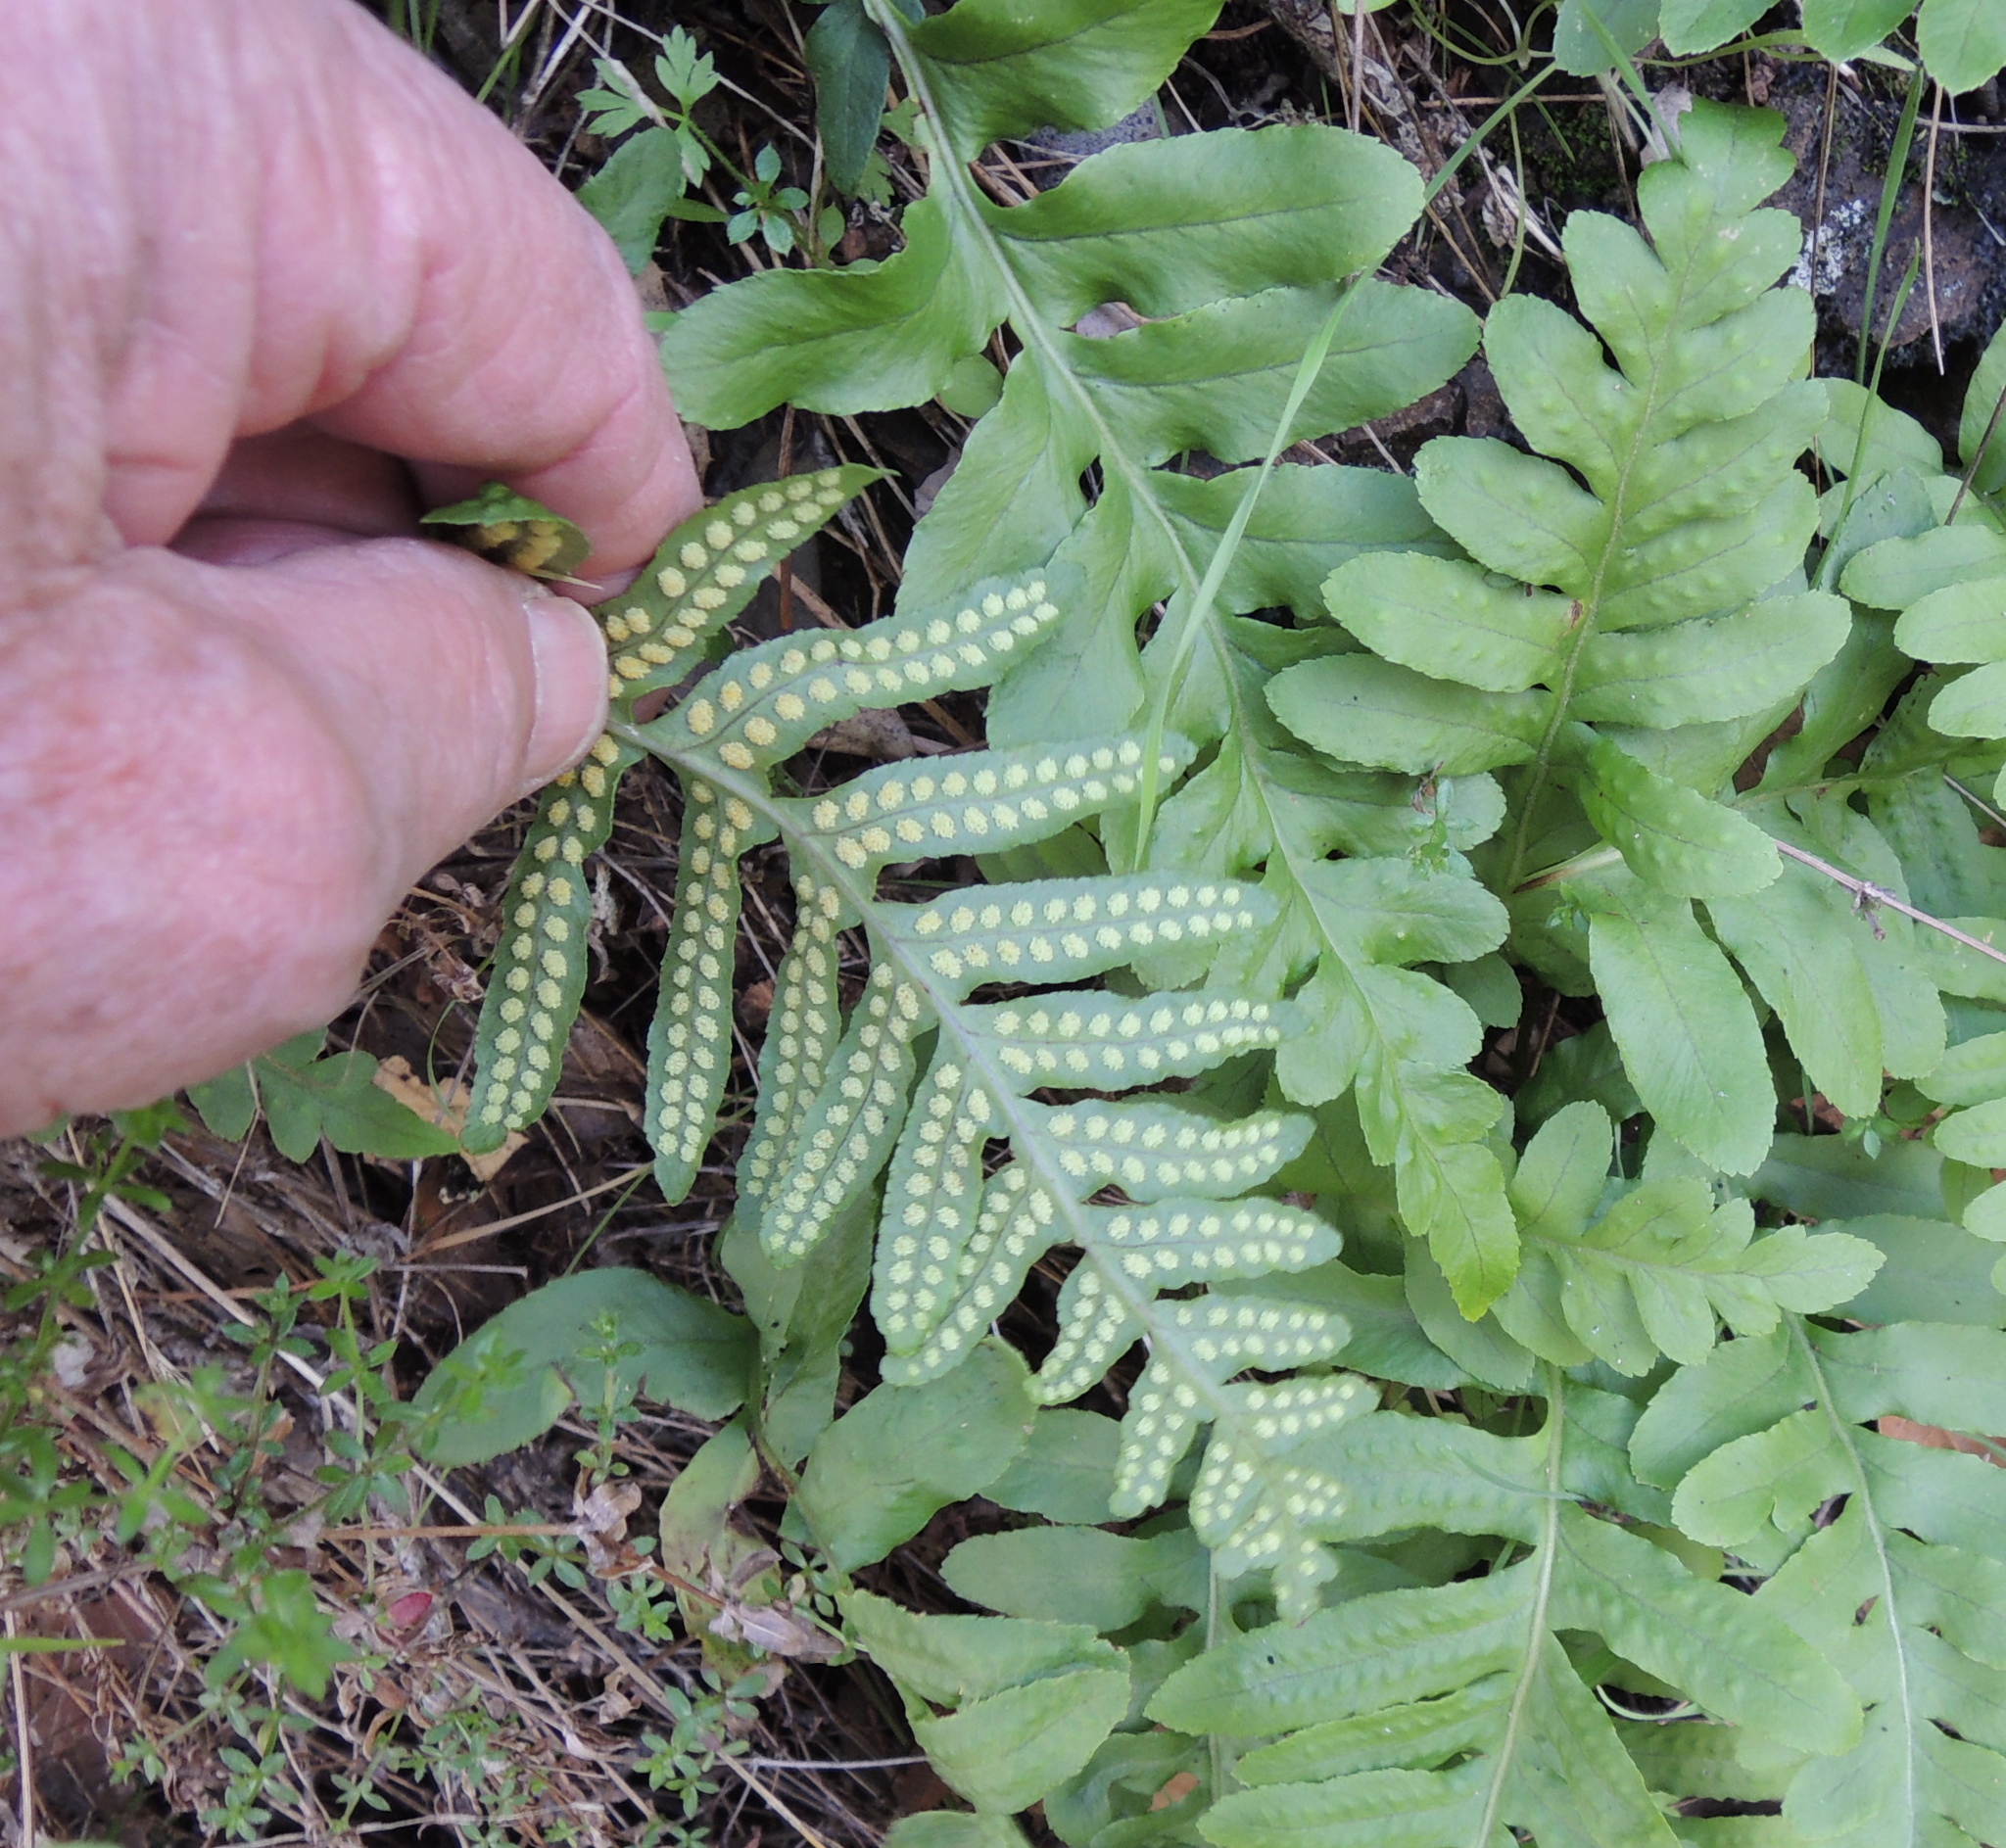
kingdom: Plantae
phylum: Tracheophyta
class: Polypodiopsida
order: Polypodiales
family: Polypodiaceae
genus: Polypodium
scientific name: Polypodium calirhiza
